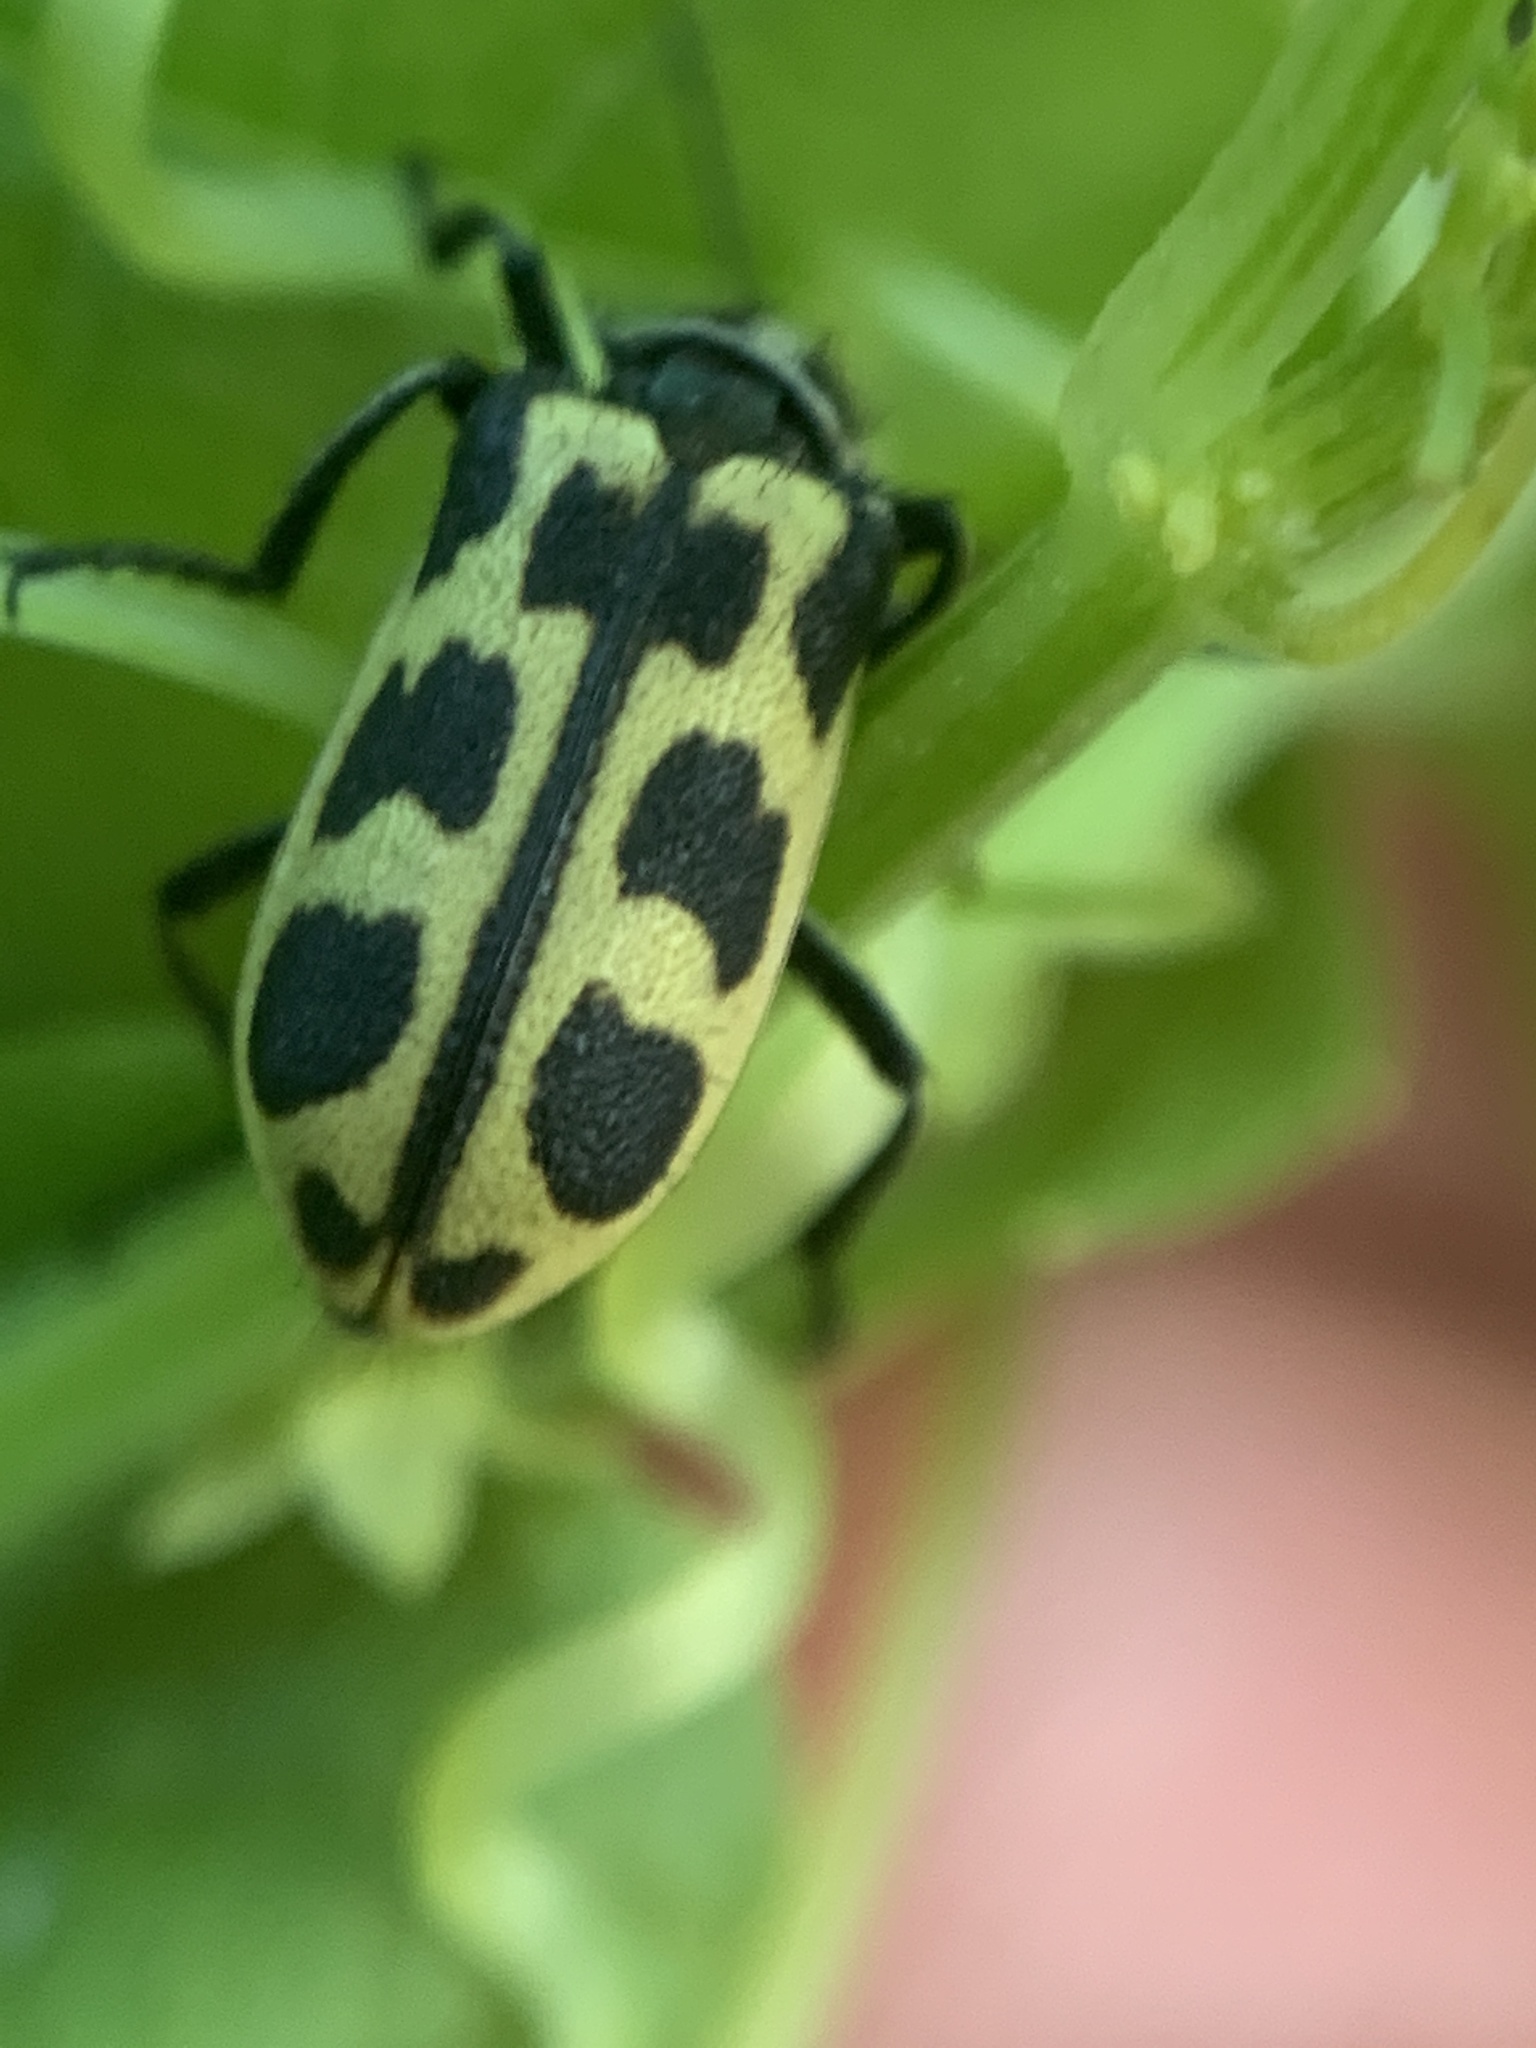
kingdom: Animalia
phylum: Arthropoda
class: Insecta
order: Coleoptera
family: Melyridae
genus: Astylus
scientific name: Astylus atromaculatus
